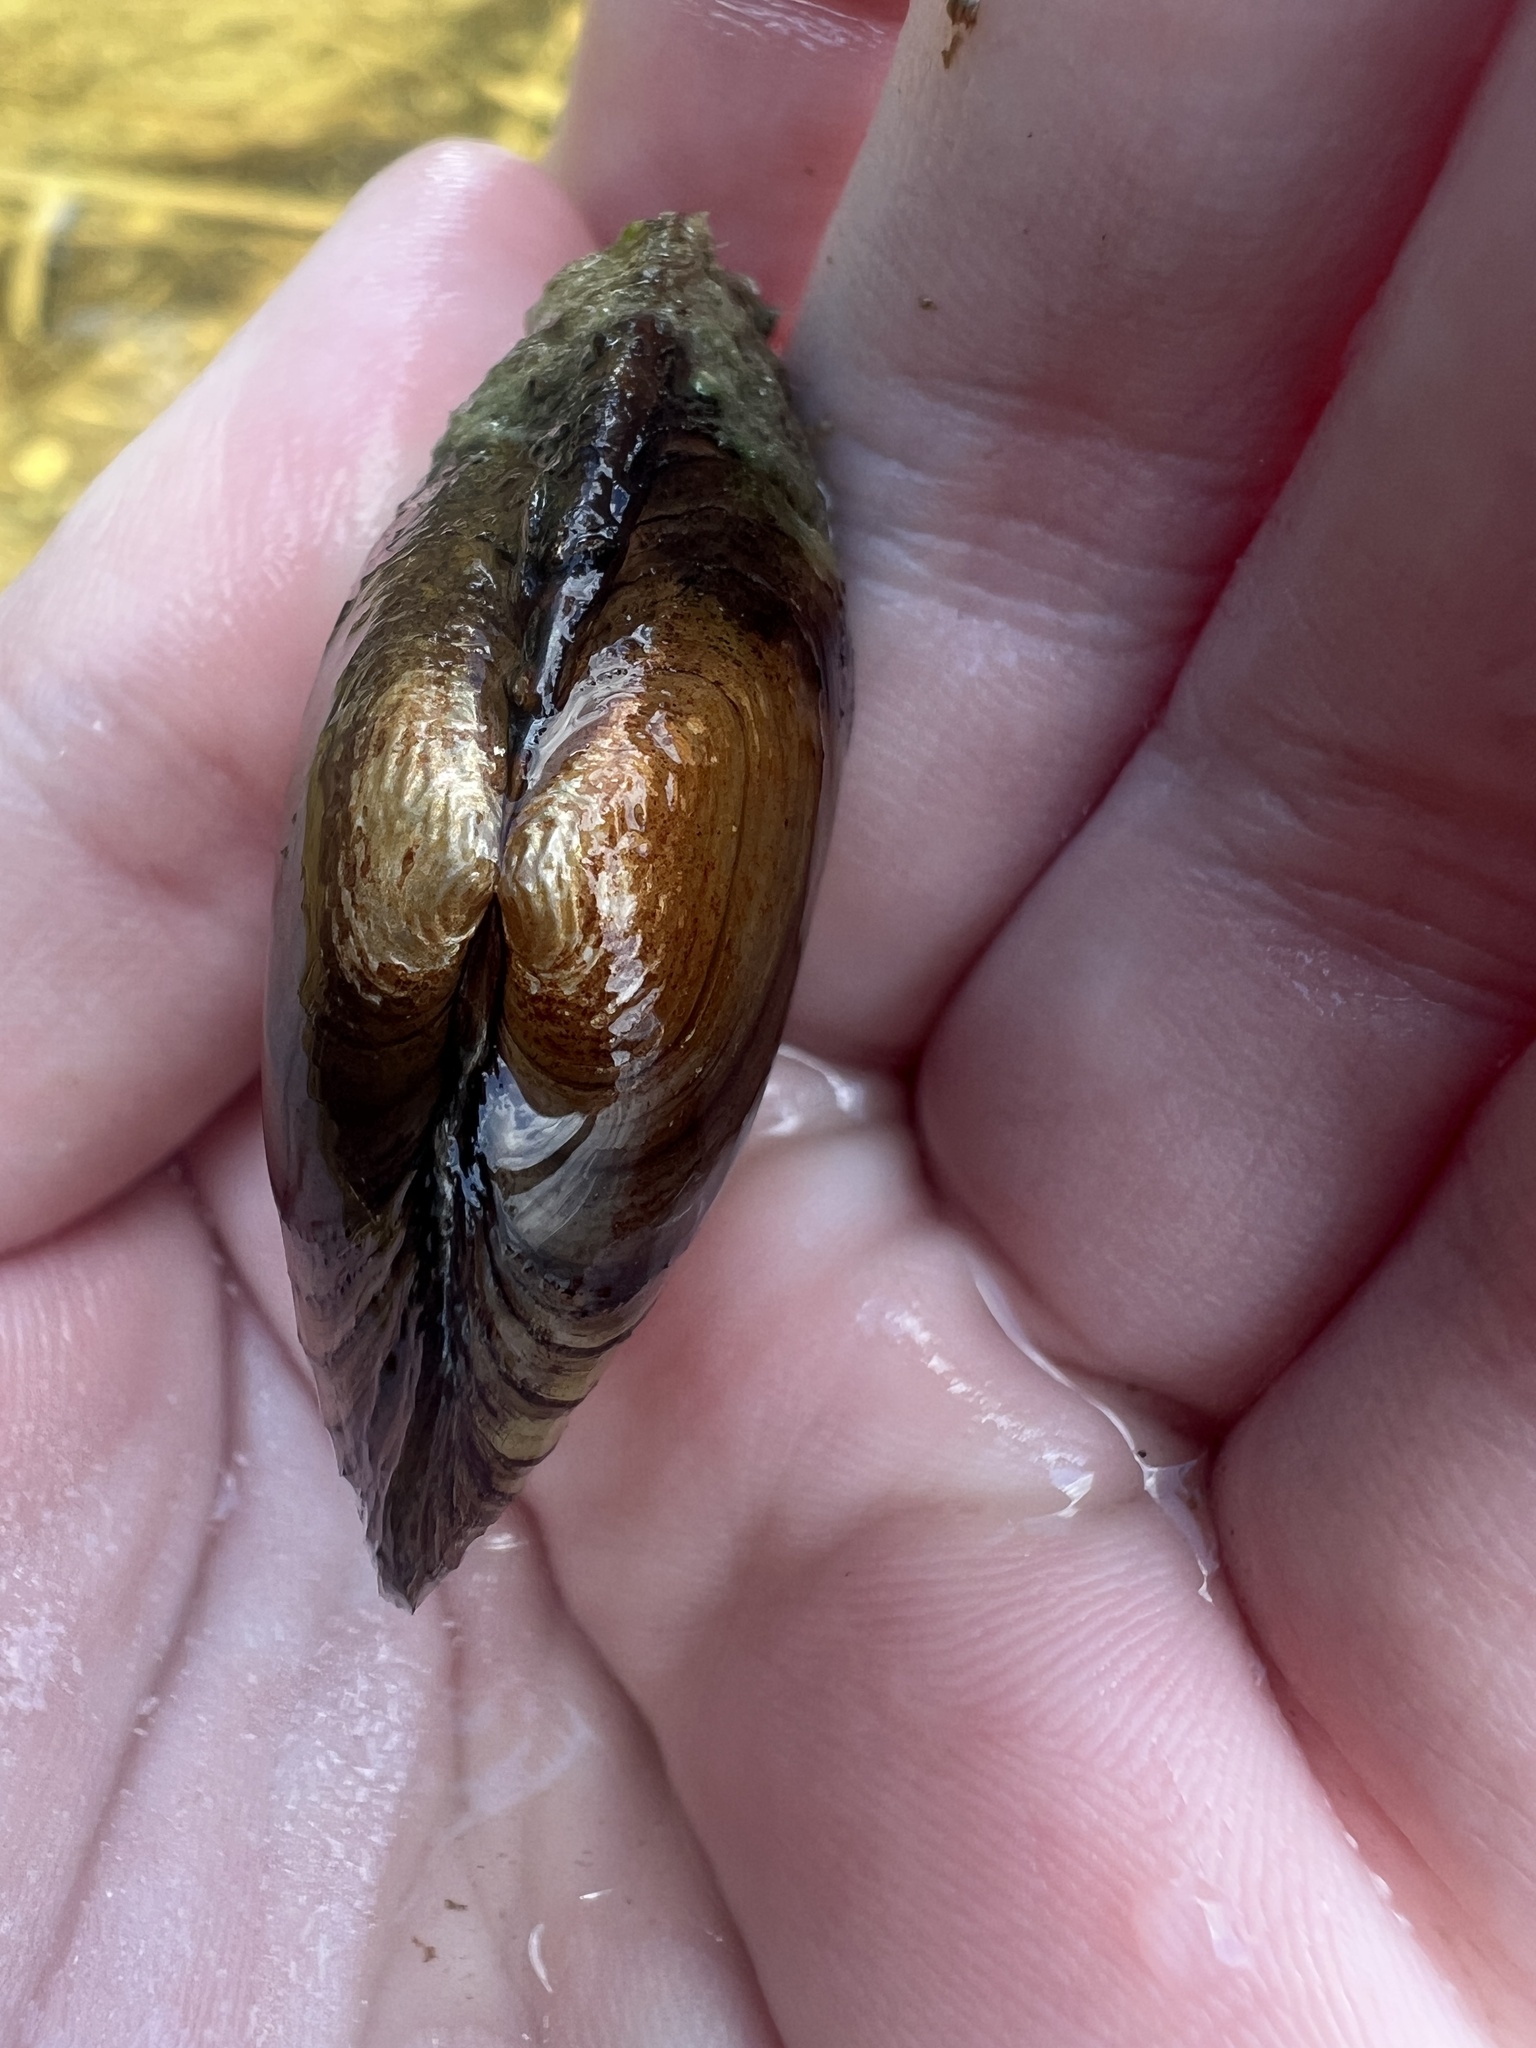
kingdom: Animalia
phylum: Mollusca
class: Bivalvia
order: Unionida
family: Unionidae
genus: Lampsilis
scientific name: Lampsilis siliquoidea
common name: Fatmucket
